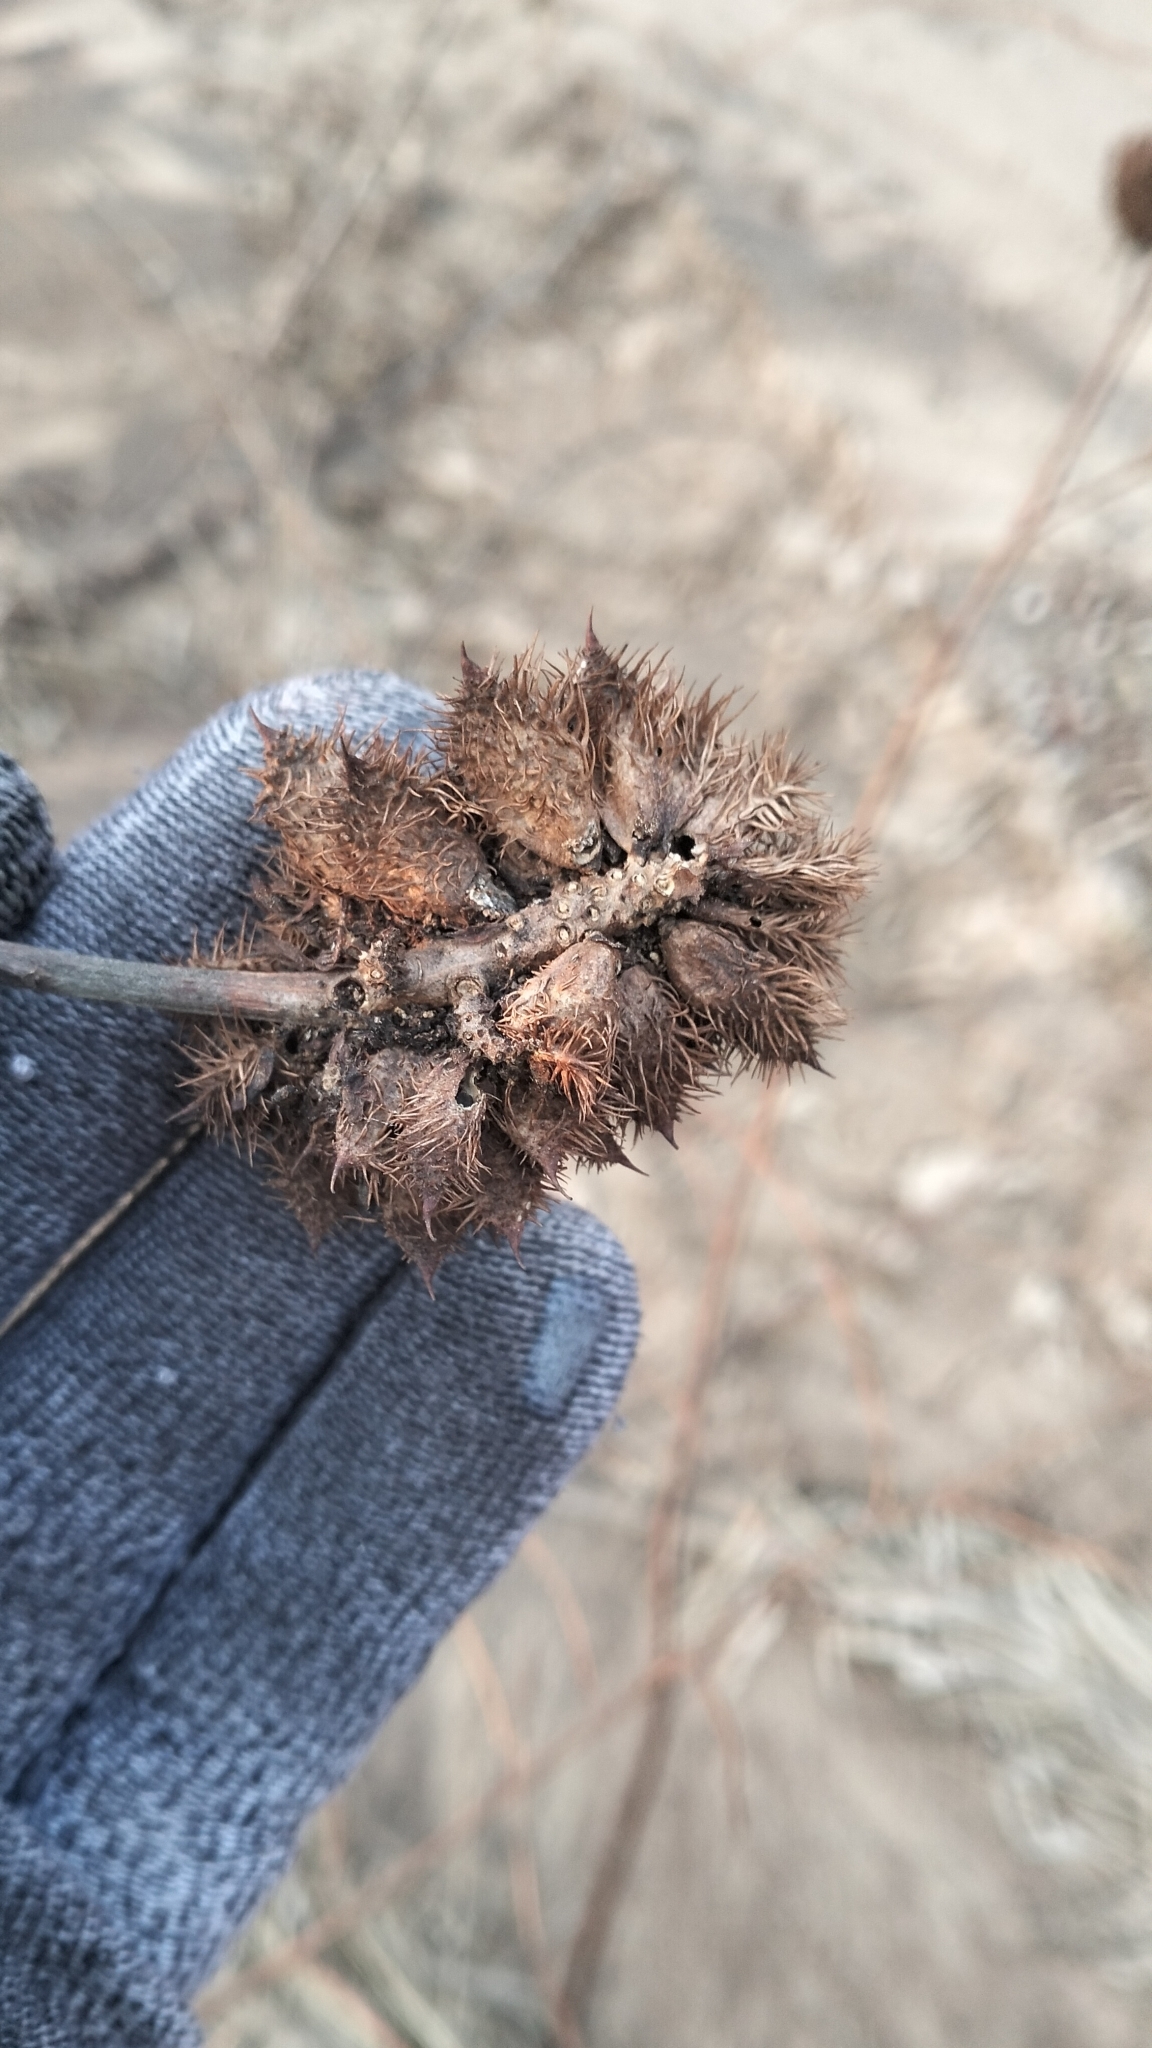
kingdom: Plantae
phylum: Tracheophyta
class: Magnoliopsida
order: Fabales
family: Fabaceae
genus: Glycyrrhiza
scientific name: Glycyrrhiza echinata
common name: German liquorice
